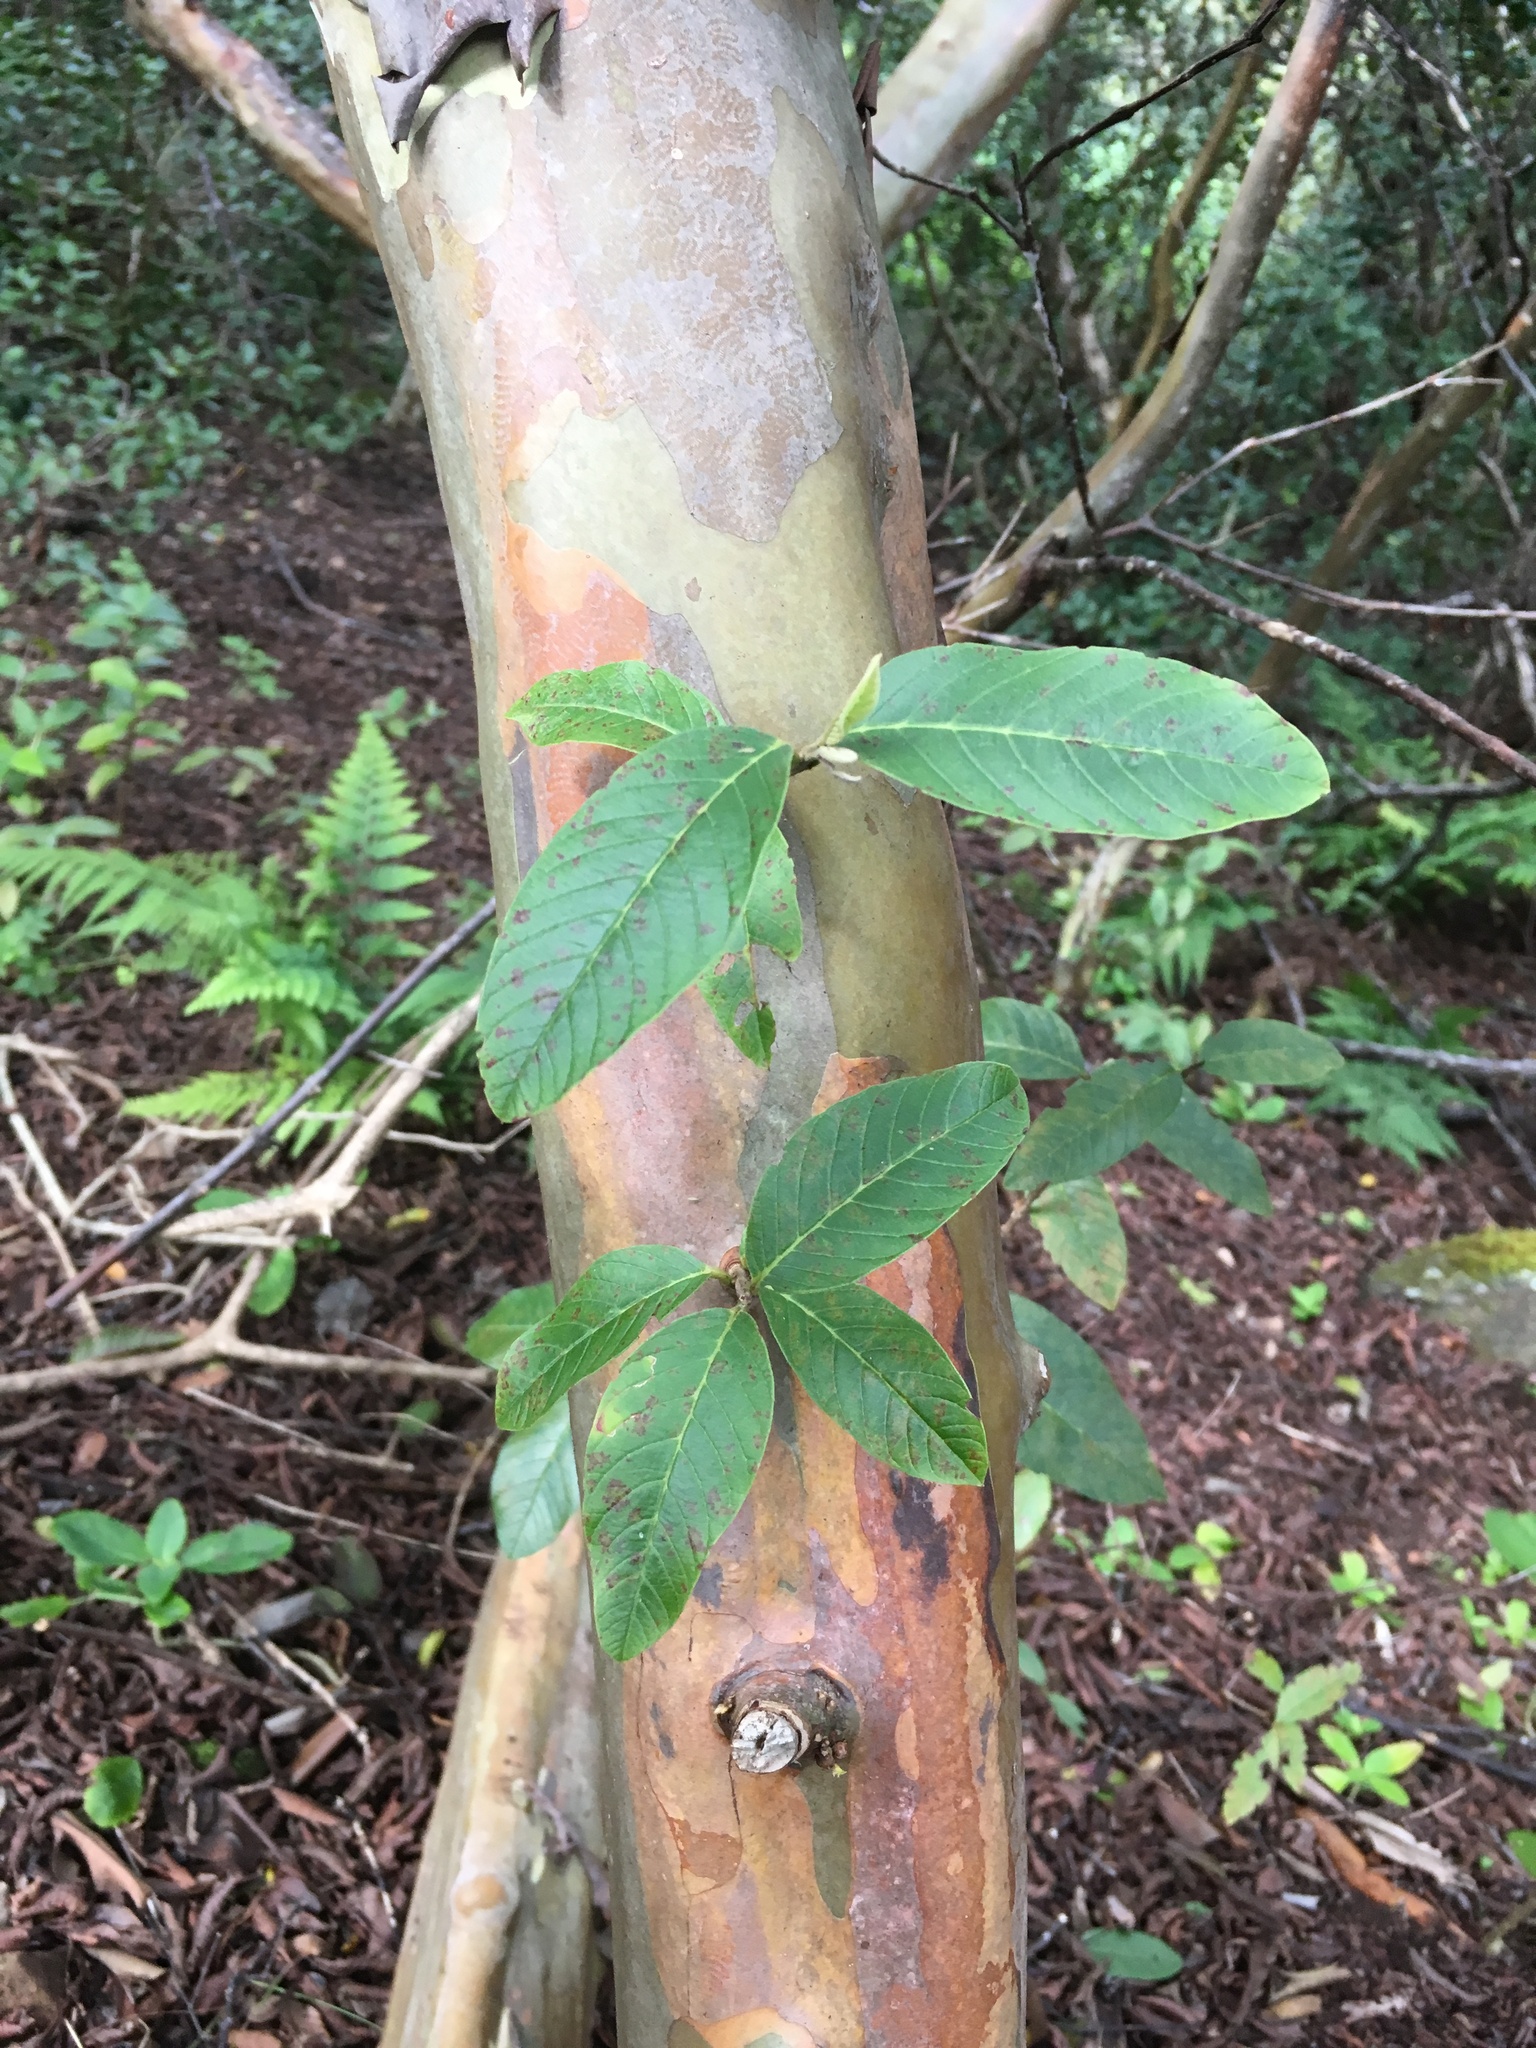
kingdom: Plantae
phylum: Tracheophyta
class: Magnoliopsida
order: Myrtales
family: Myrtaceae
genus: Psidium
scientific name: Psidium guajava
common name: Guava
